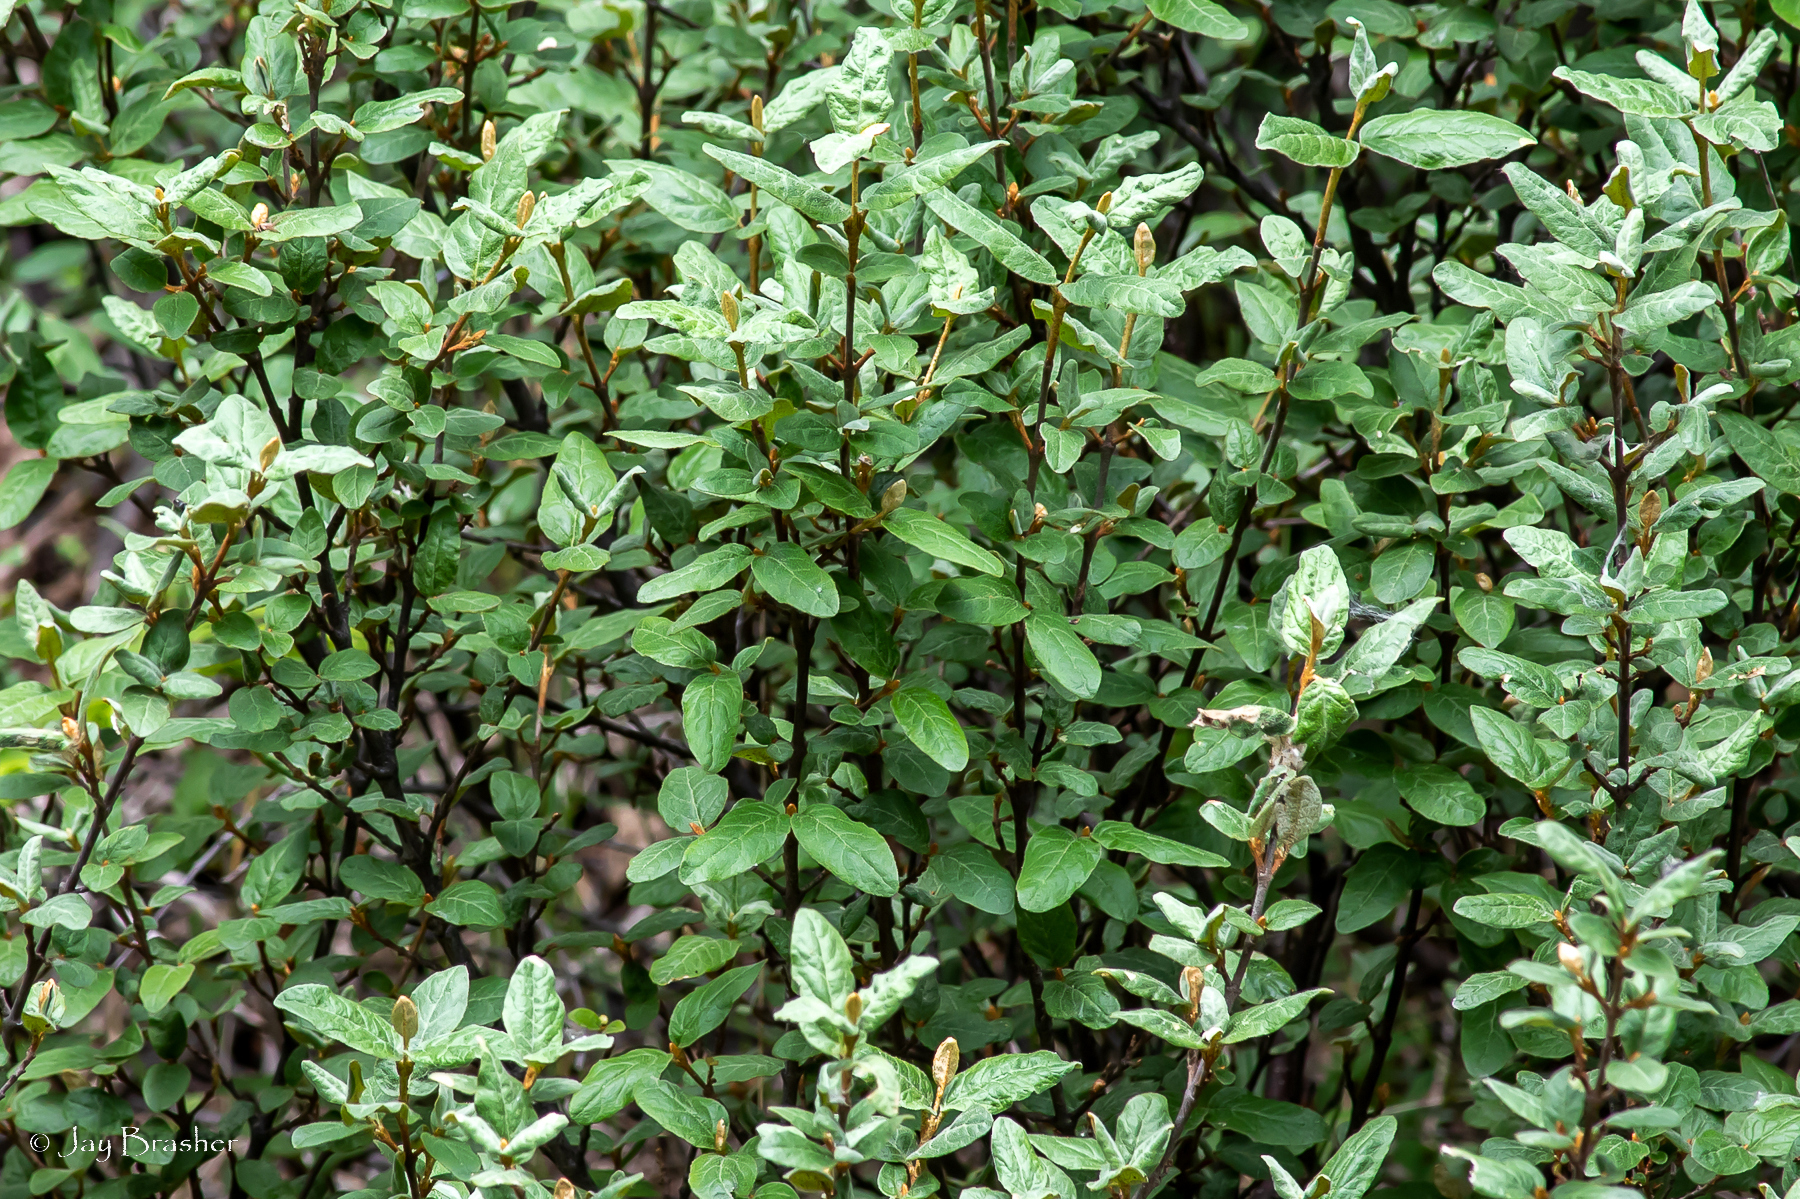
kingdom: Plantae
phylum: Tracheophyta
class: Magnoliopsida
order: Rosales
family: Elaeagnaceae
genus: Shepherdia
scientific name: Shepherdia canadensis
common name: Soapberry
